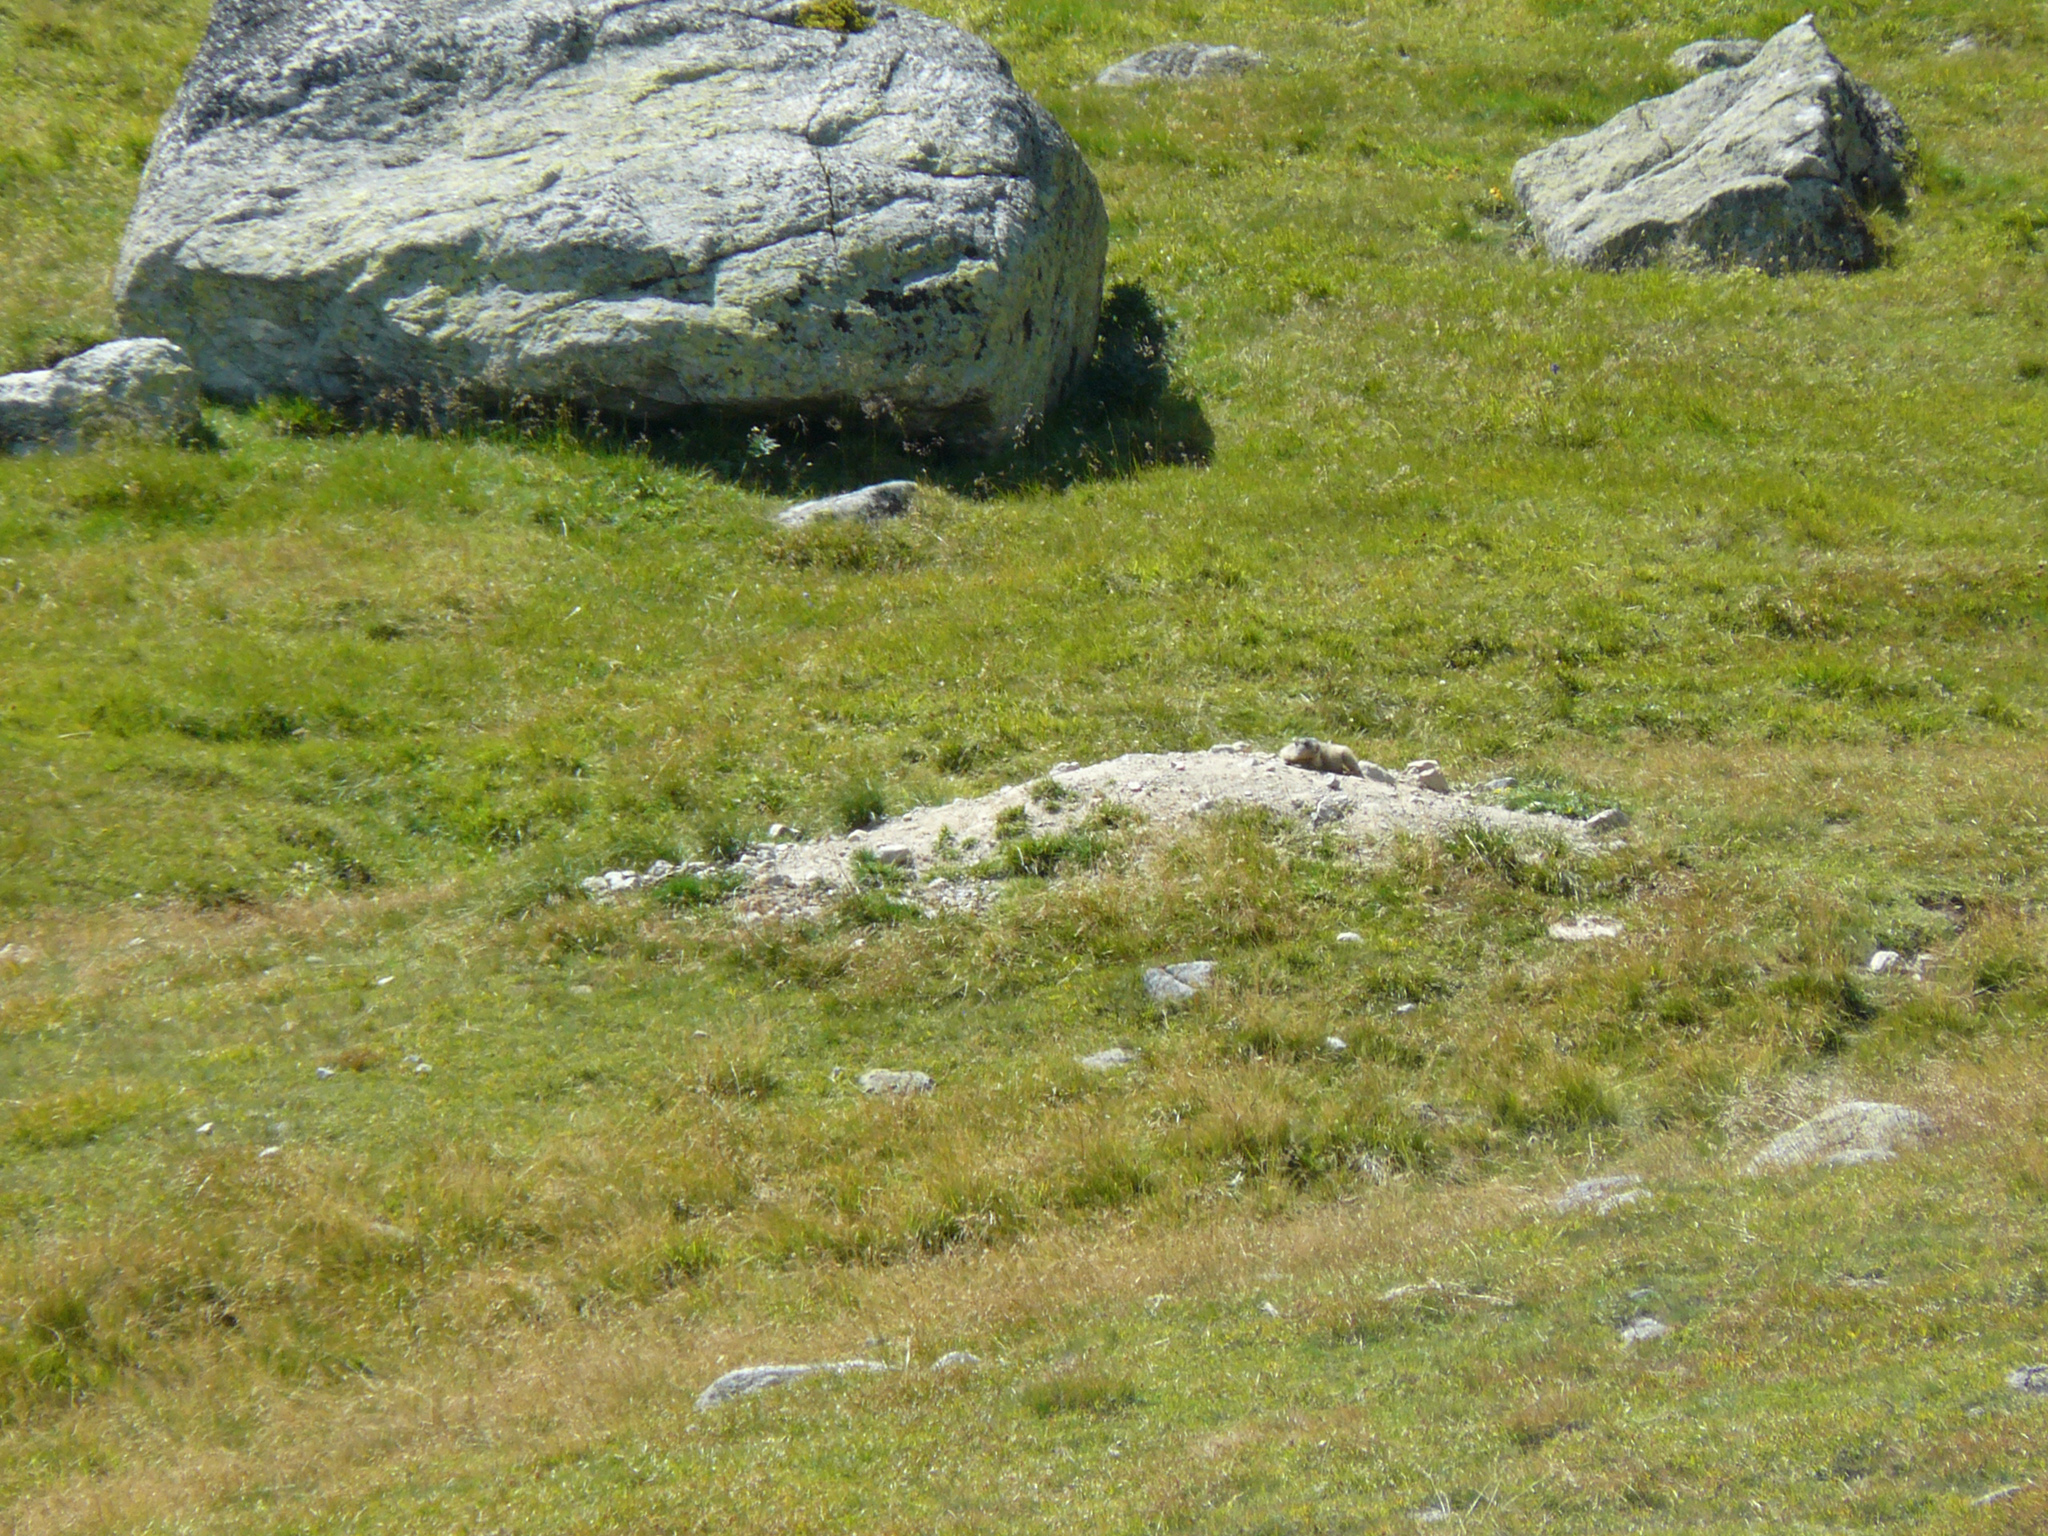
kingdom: Animalia
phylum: Chordata
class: Mammalia
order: Rodentia
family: Sciuridae
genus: Marmota
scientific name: Marmota marmota
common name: Alpine marmot
